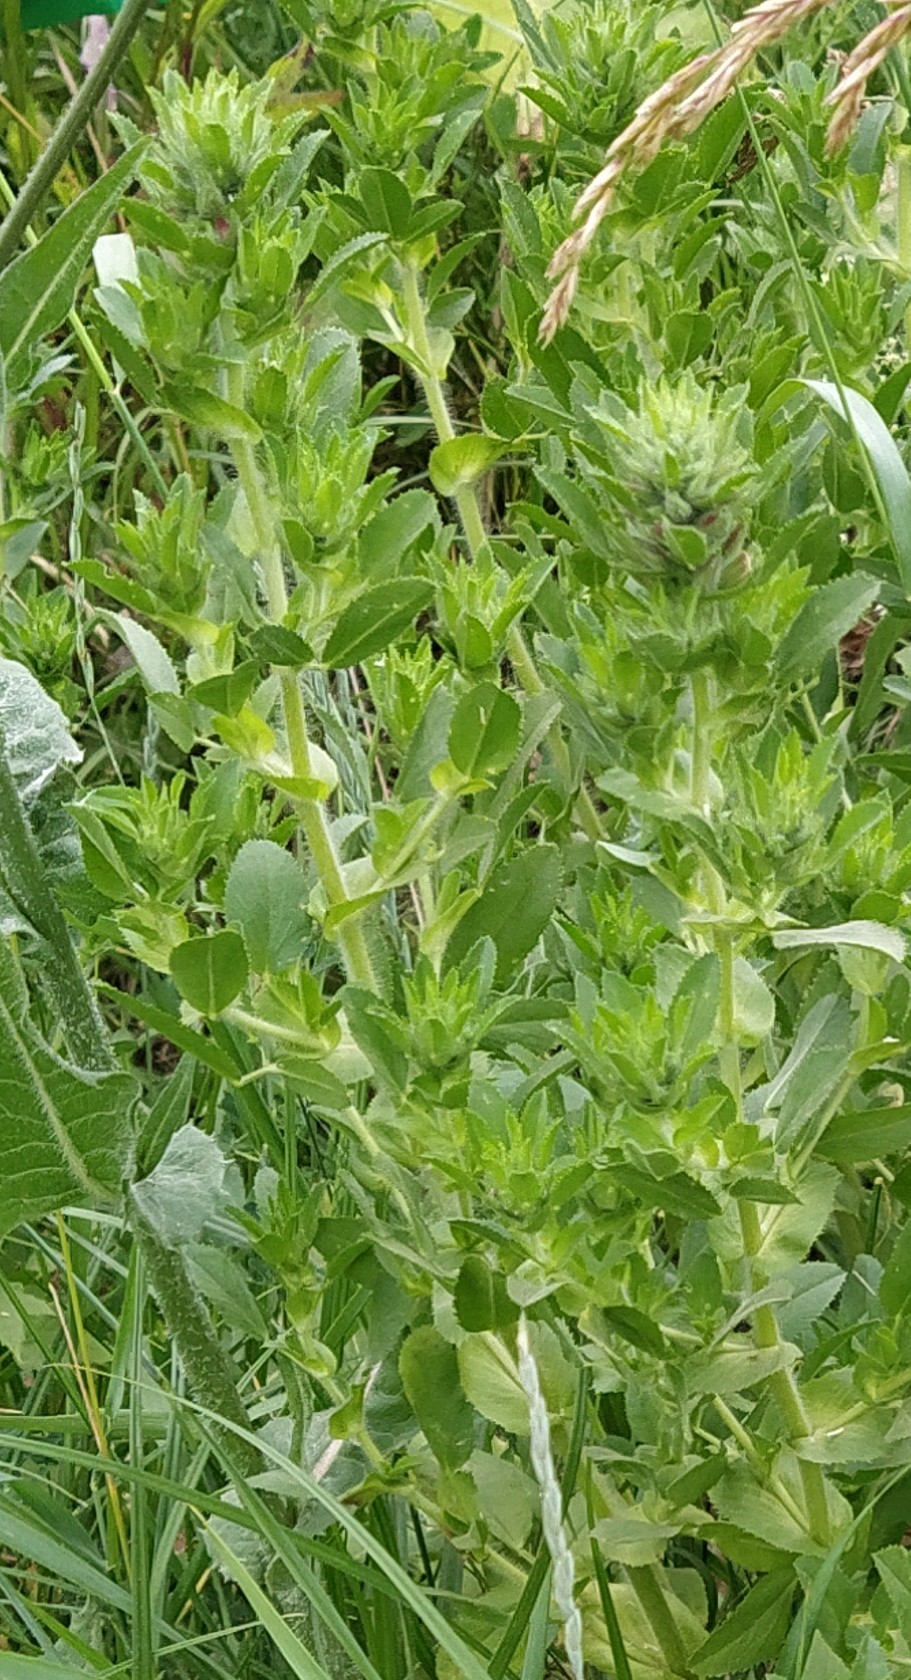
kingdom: Plantae
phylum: Tracheophyta
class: Magnoliopsida
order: Fabales
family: Fabaceae
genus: Ononis
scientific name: Ononis arvensis
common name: Field restharrow
